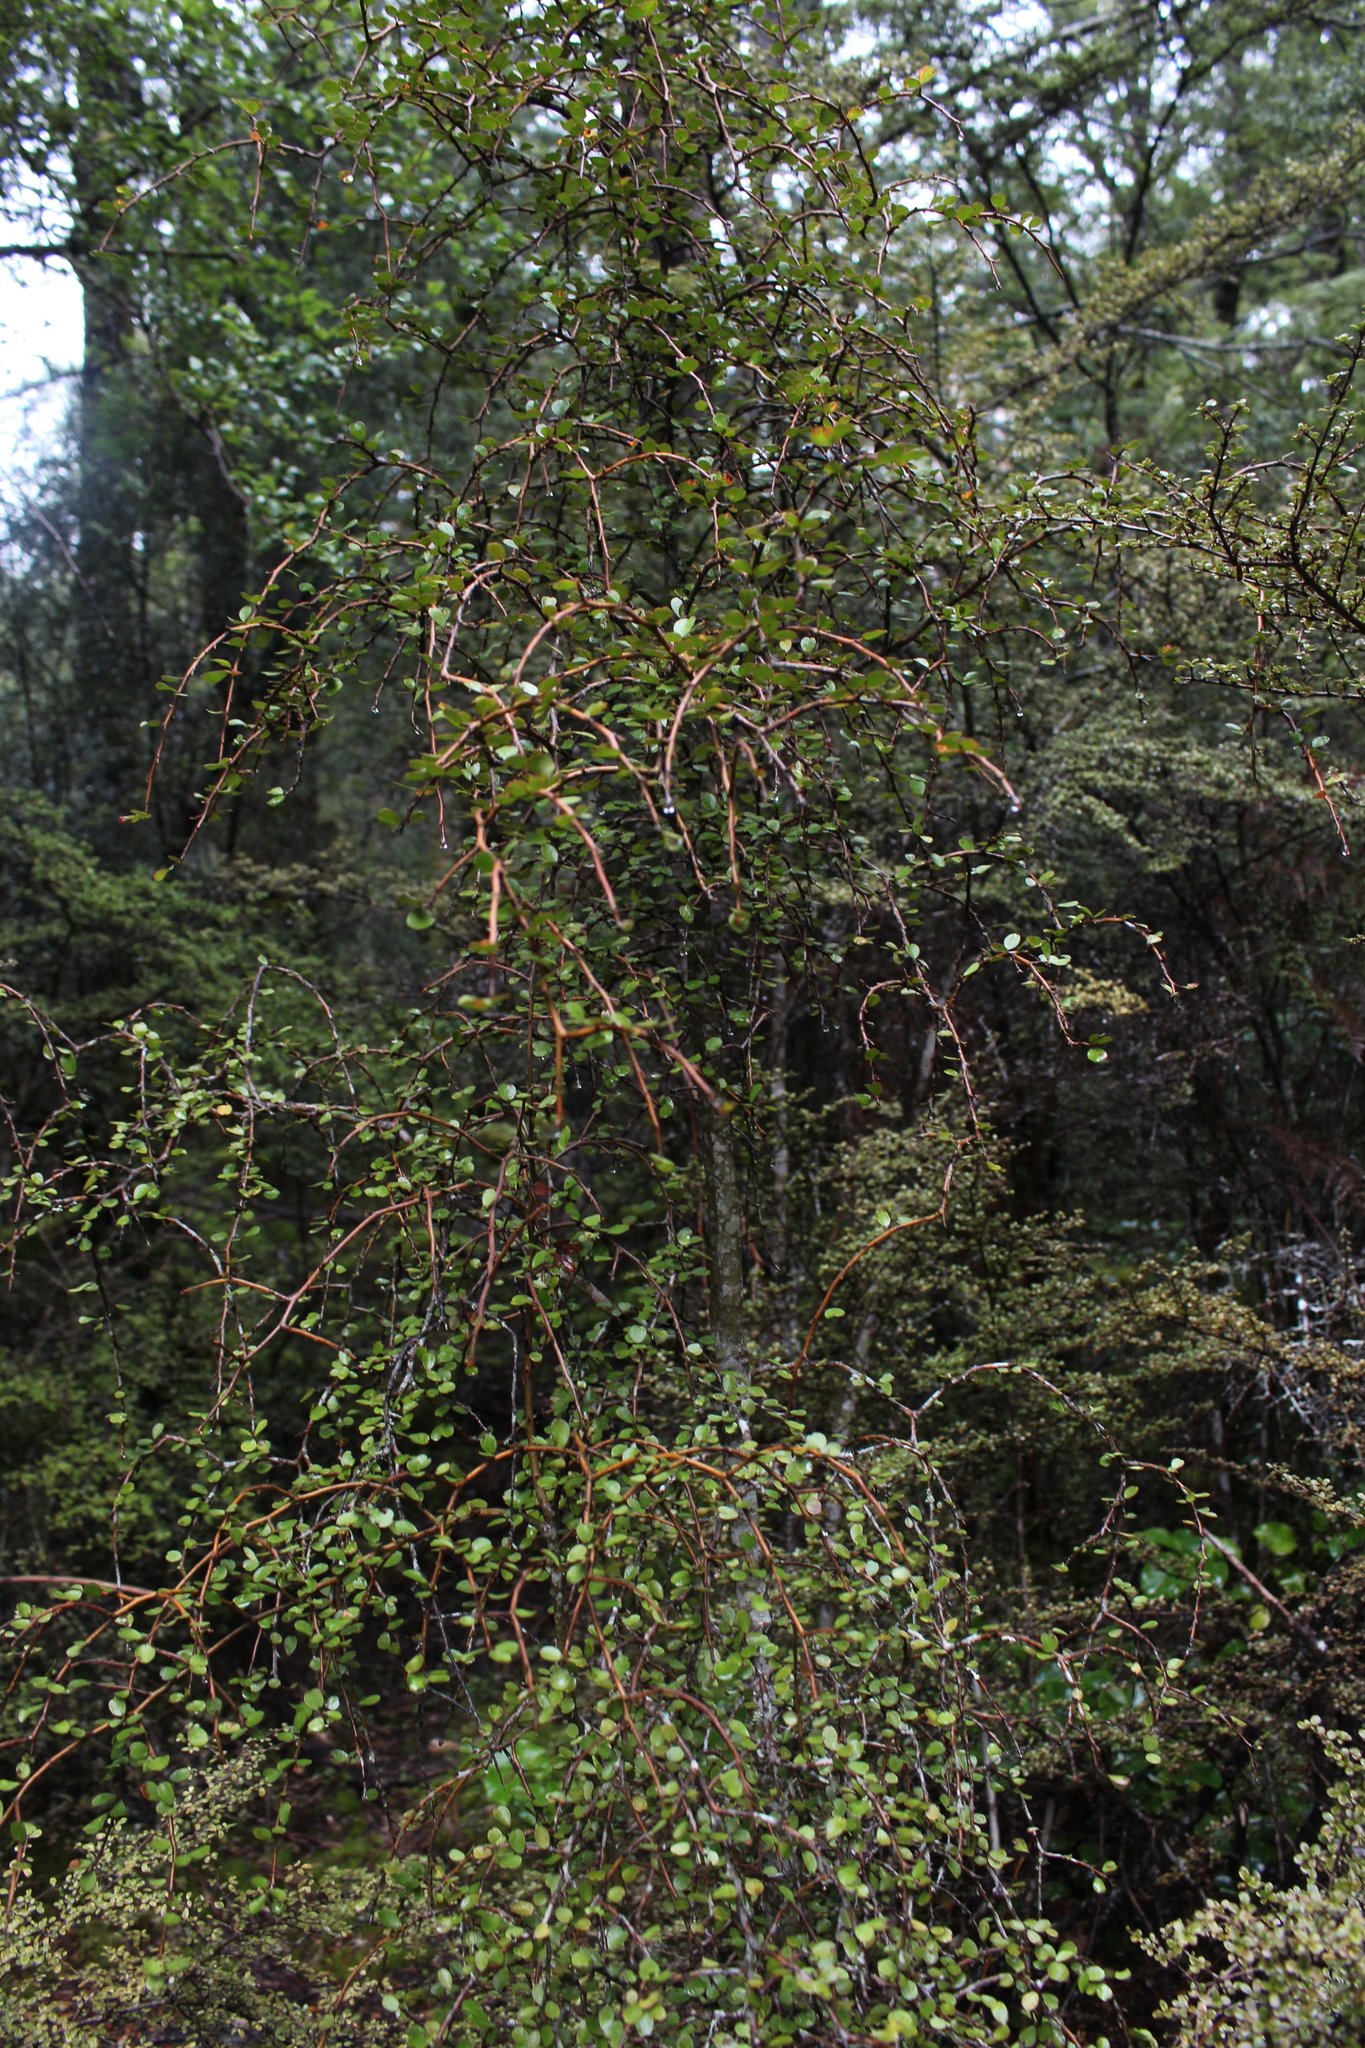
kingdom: Plantae
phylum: Tracheophyta
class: Magnoliopsida
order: Ericales
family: Primulaceae
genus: Myrsine
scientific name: Myrsine divaricata
